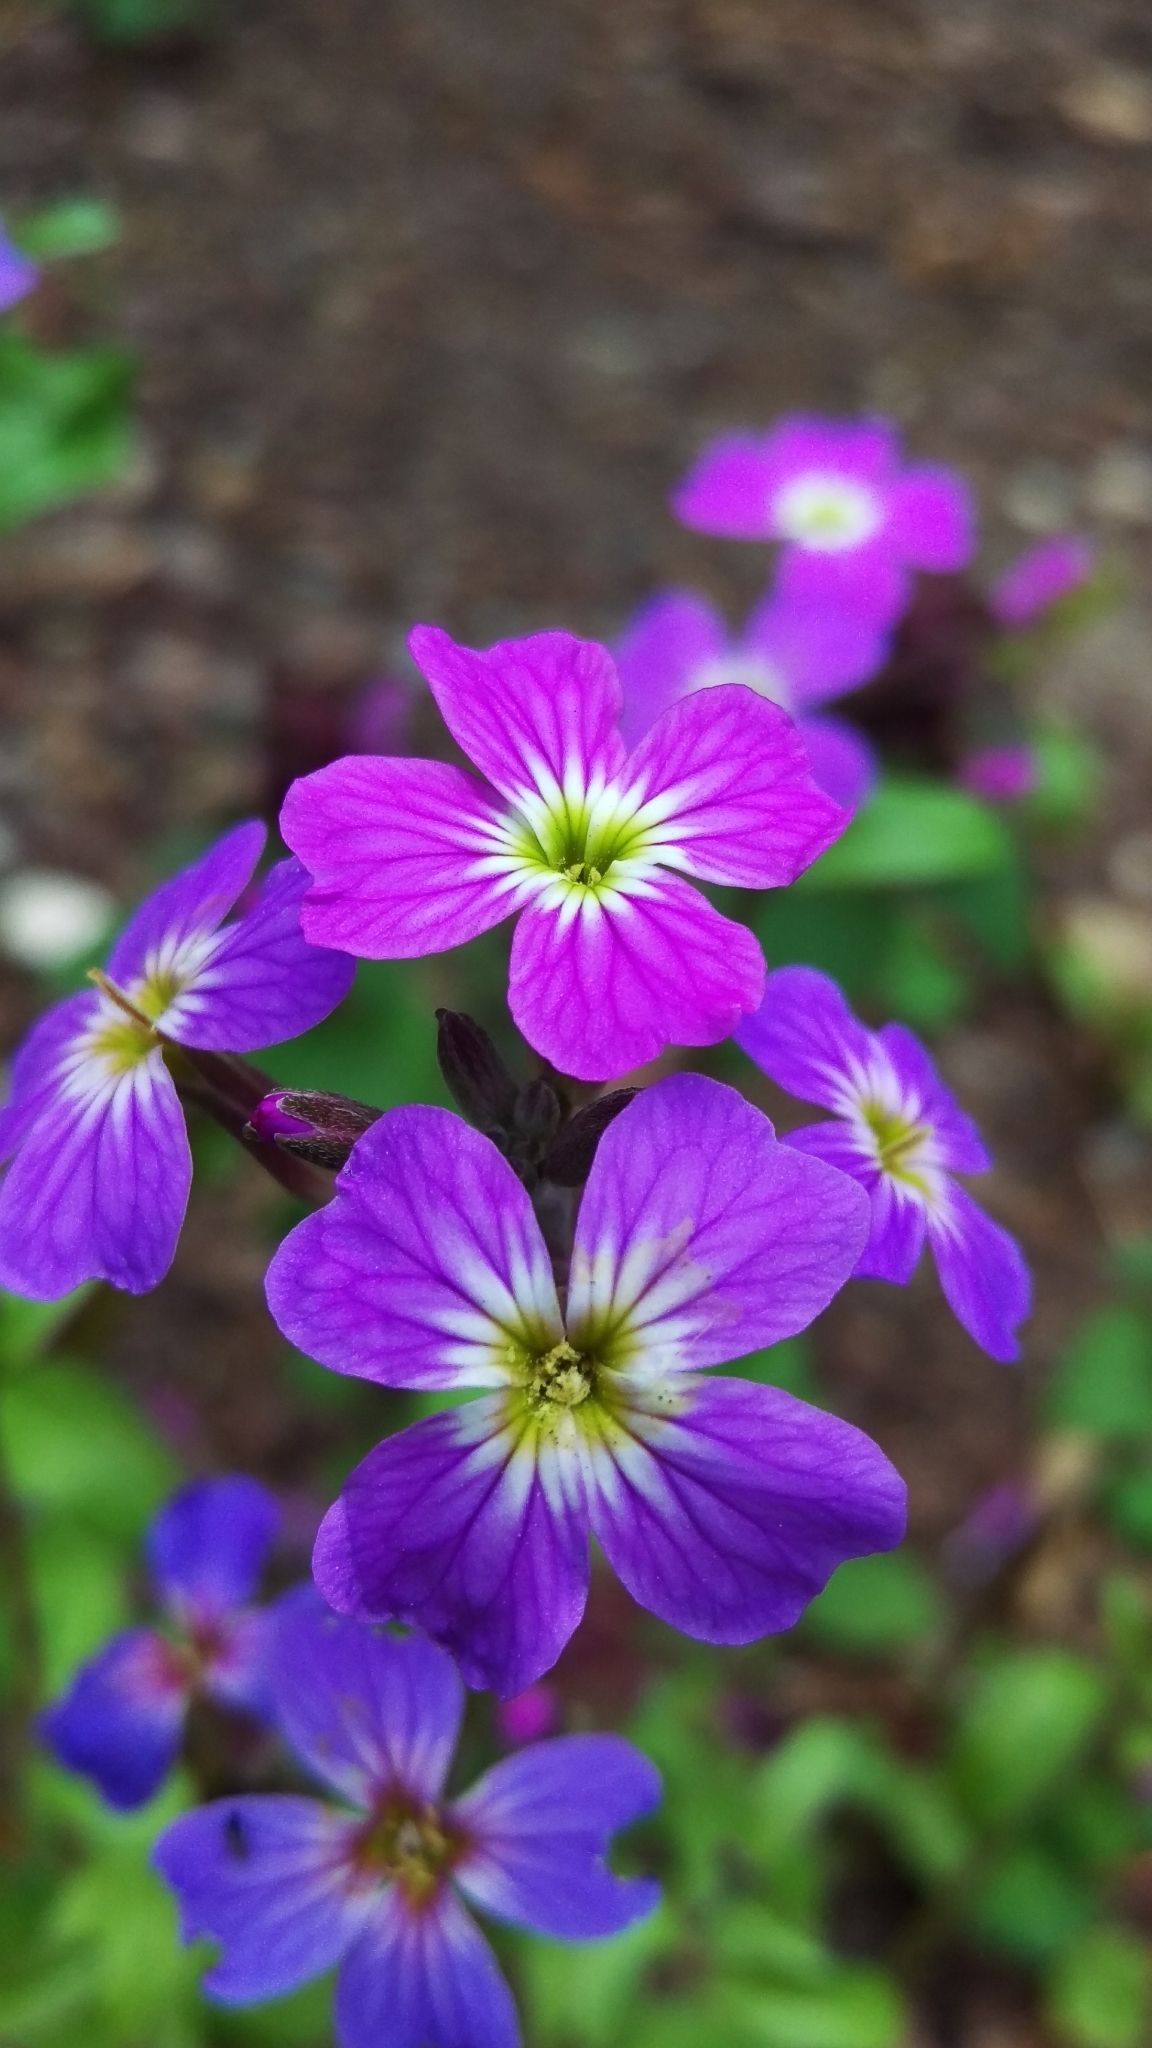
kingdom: Plantae
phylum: Tracheophyta
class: Magnoliopsida
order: Brassicales
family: Brassicaceae
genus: Malcolmia
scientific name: Malcolmia maritima
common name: Virginia stock
